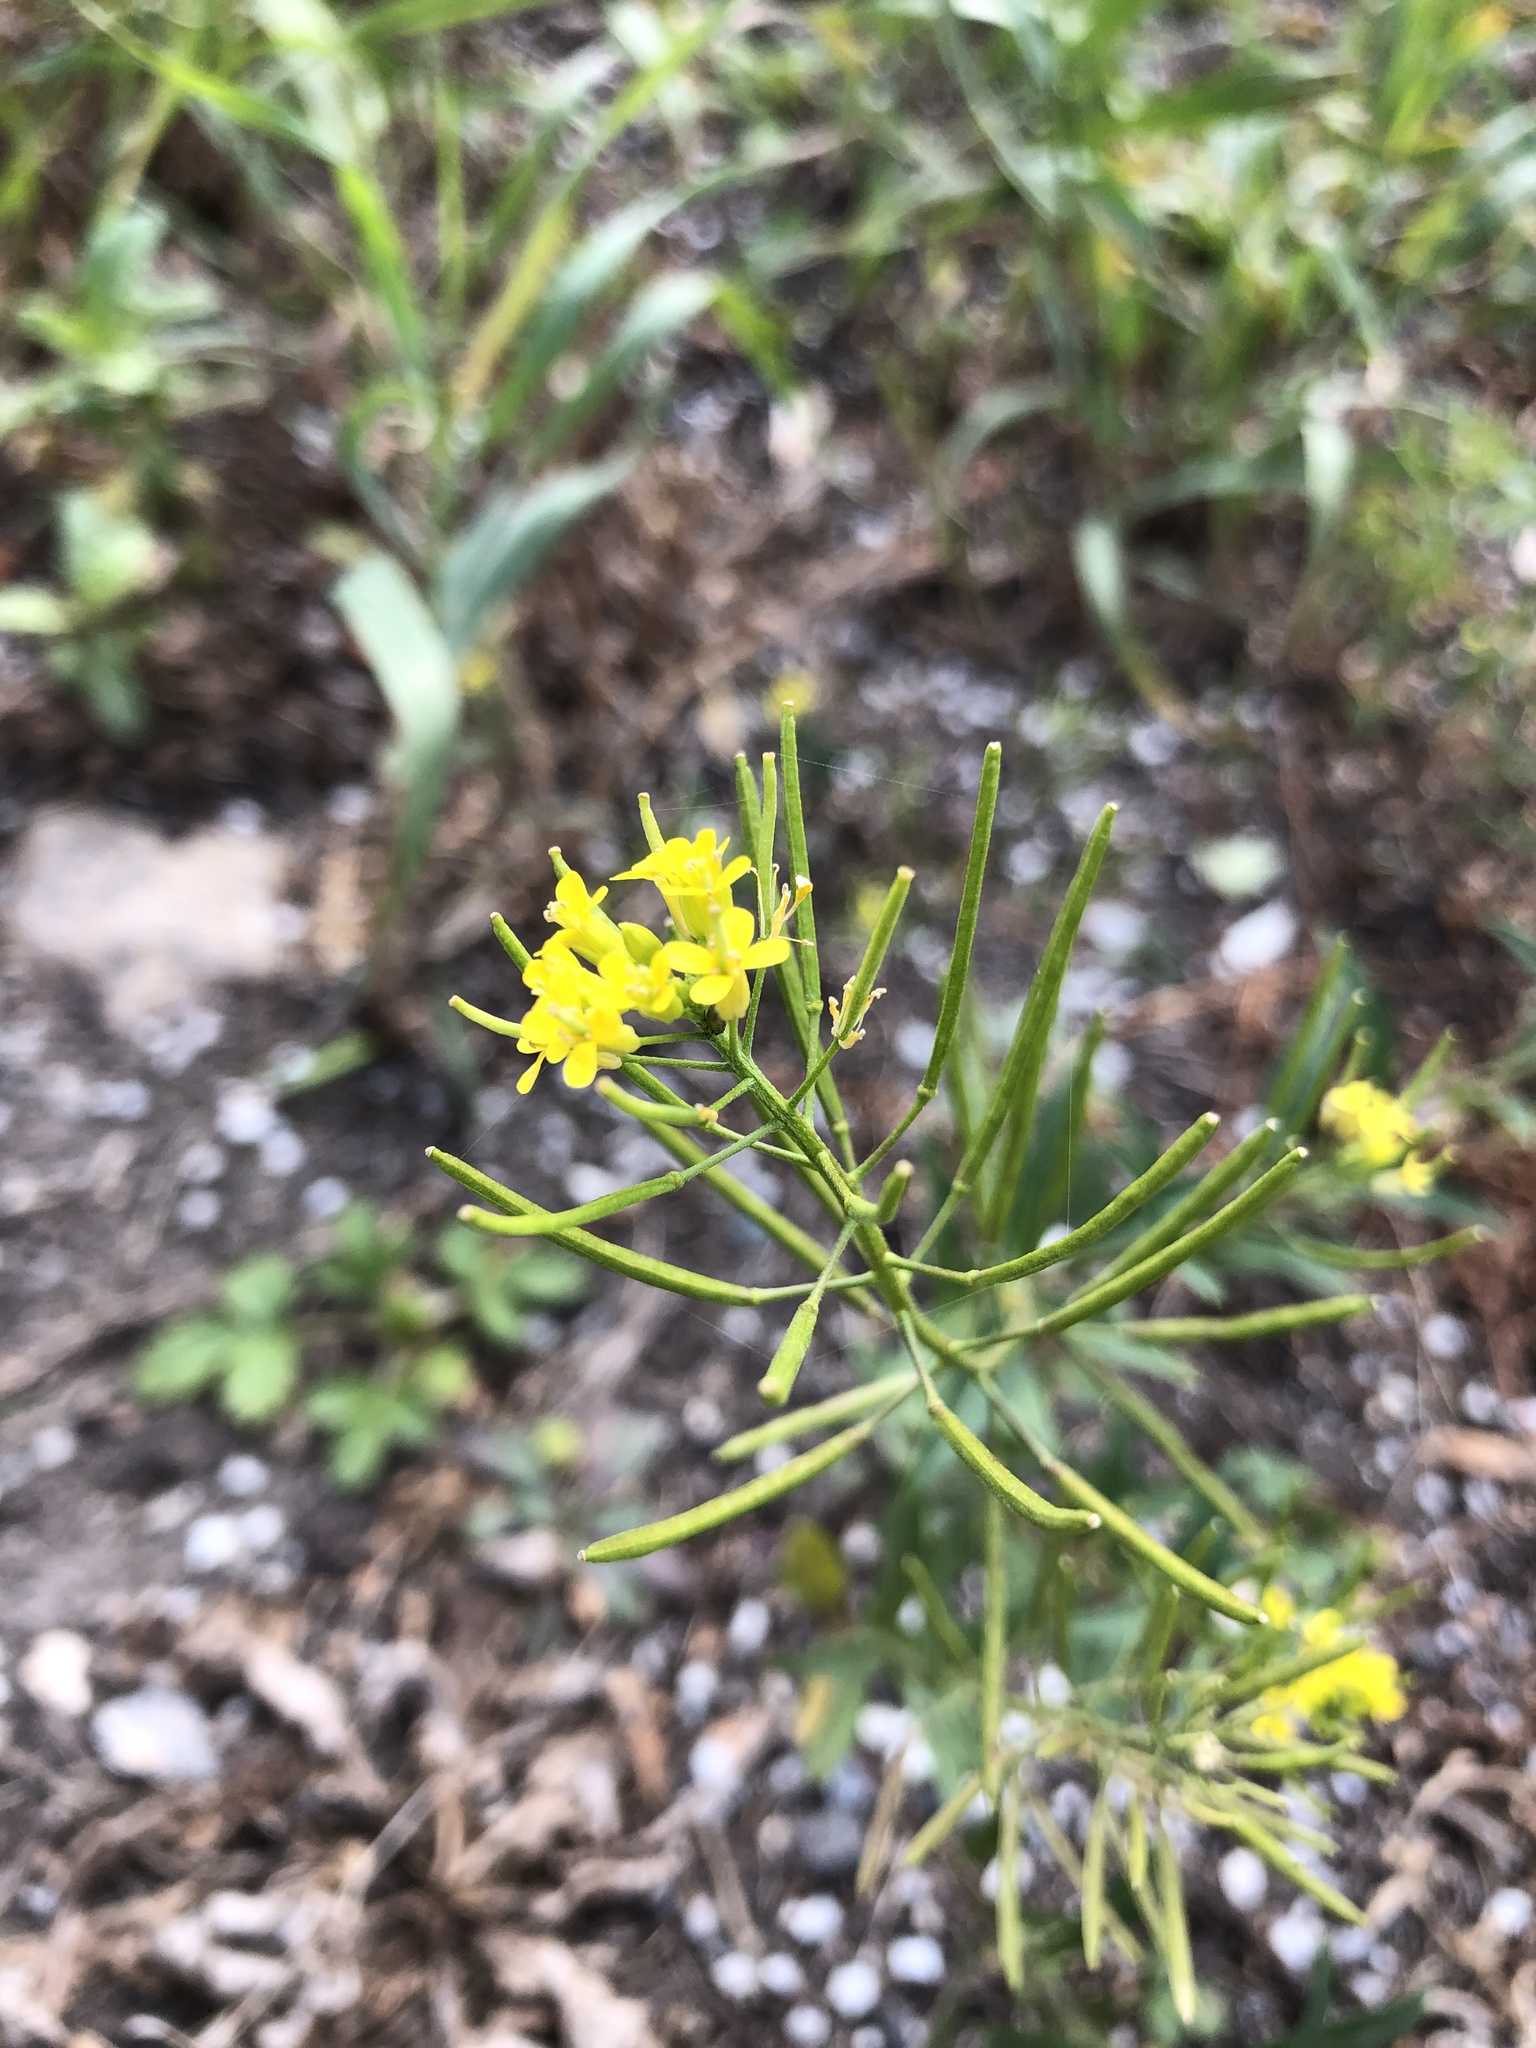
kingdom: Plantae
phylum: Tracheophyta
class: Magnoliopsida
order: Brassicales
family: Brassicaceae
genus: Erysimum
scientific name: Erysimum cheiranthoides
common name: Treacle mustard
